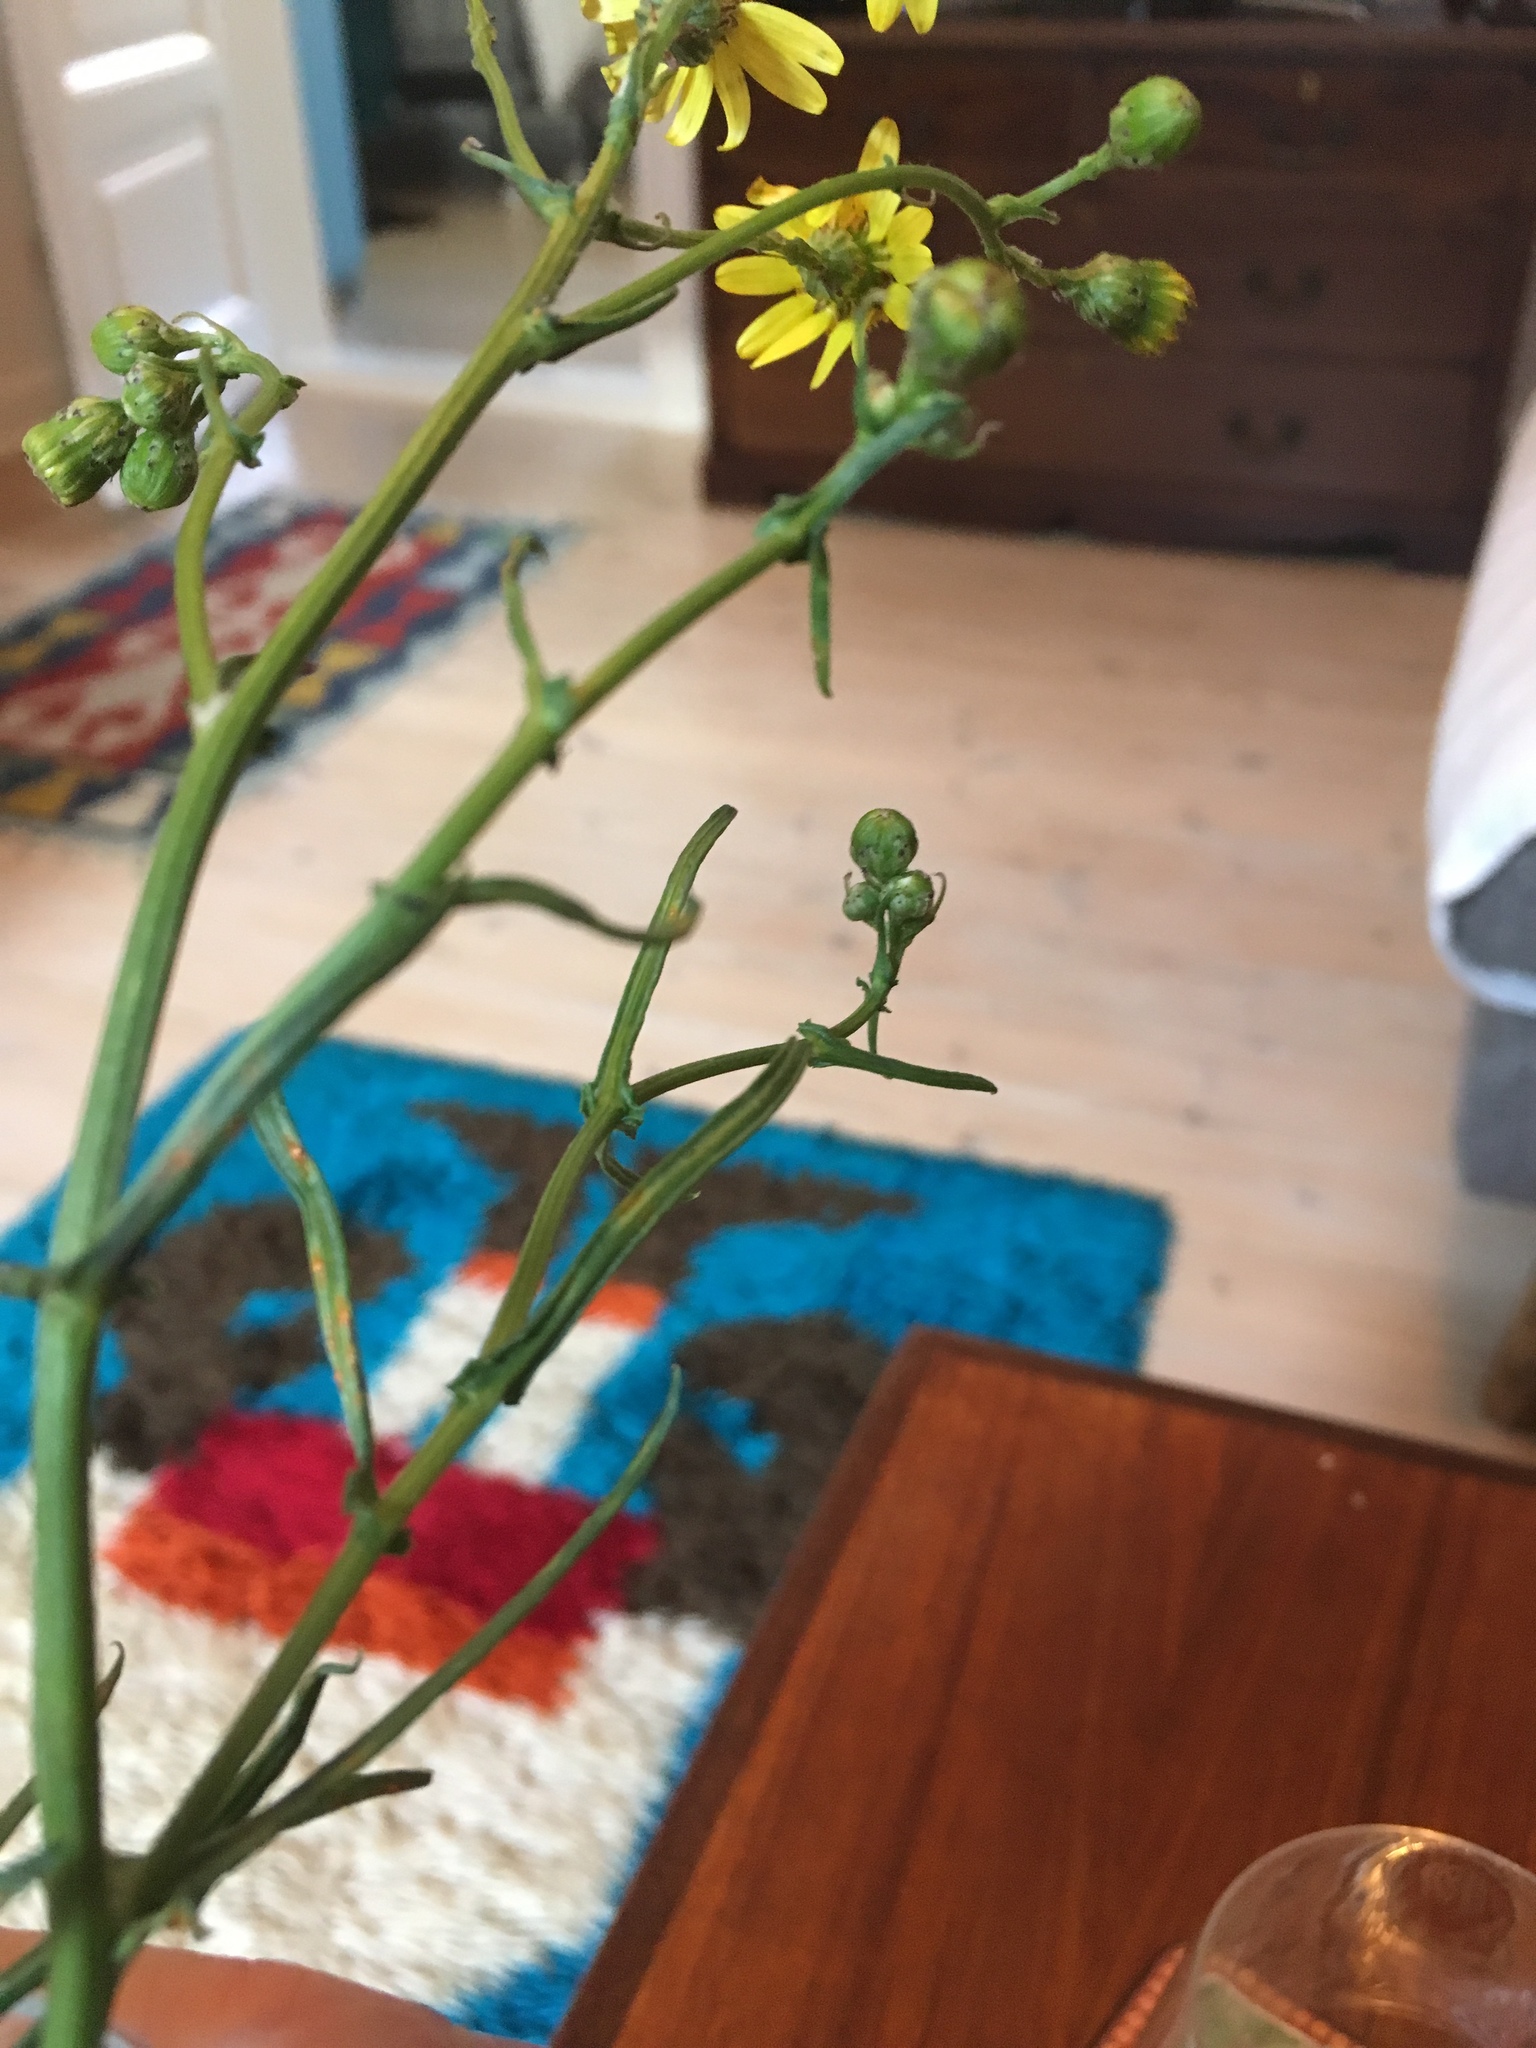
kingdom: Plantae
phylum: Tracheophyta
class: Magnoliopsida
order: Asterales
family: Asteraceae
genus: Senecio
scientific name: Senecio inaequidens
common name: Narrow-leaved ragwort
